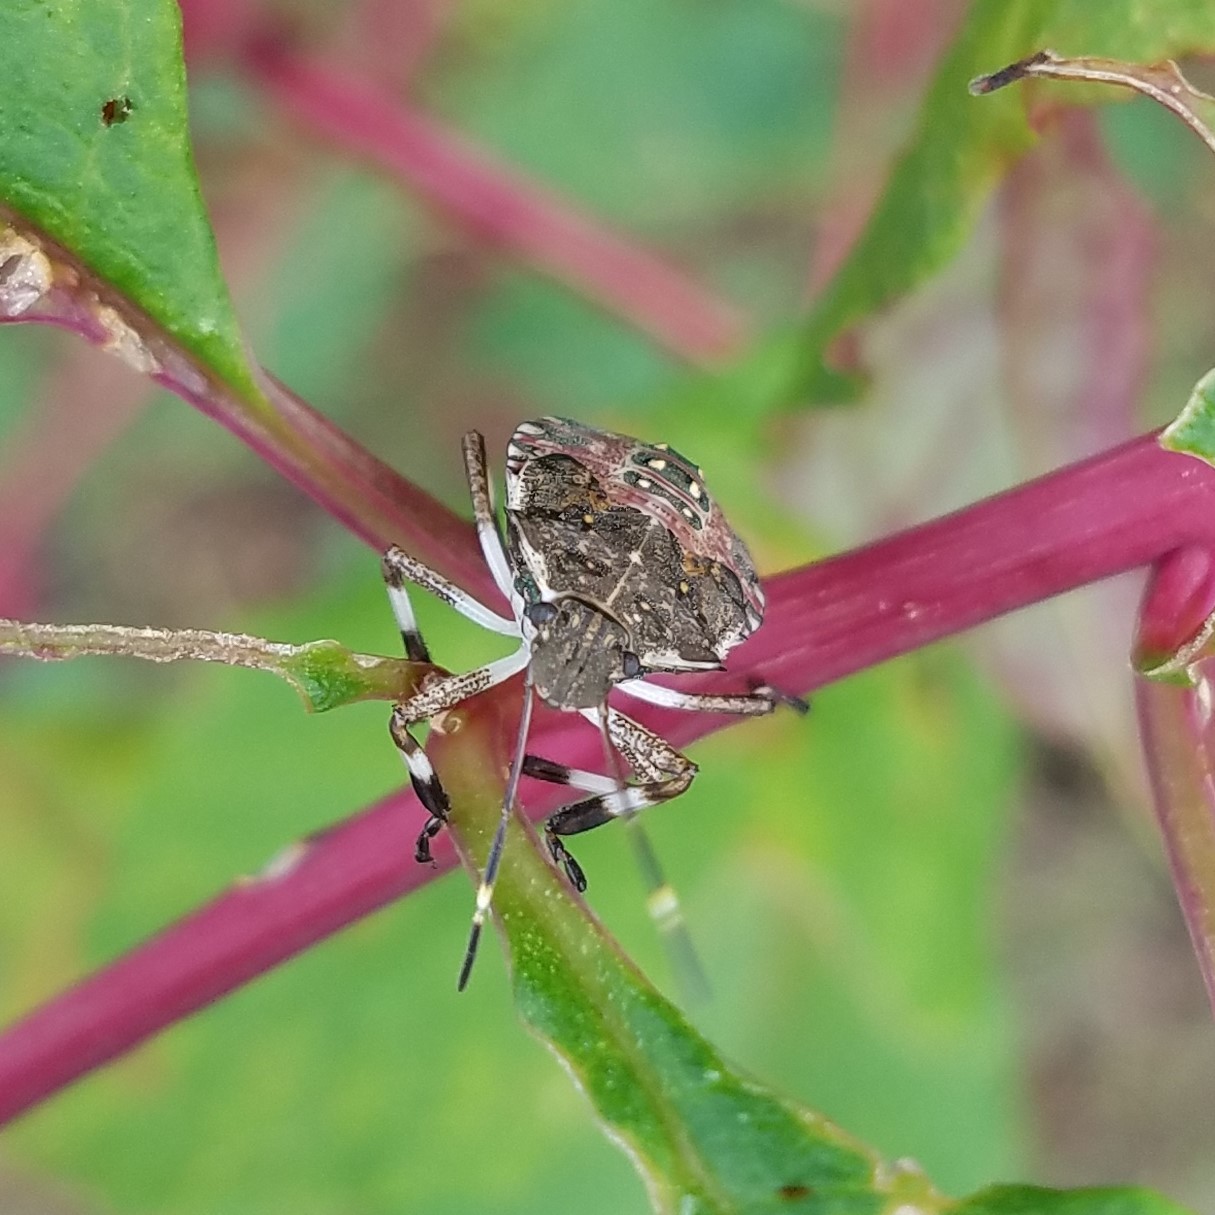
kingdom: Animalia
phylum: Arthropoda
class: Insecta
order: Hemiptera
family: Pentatomidae
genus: Halyomorpha
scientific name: Halyomorpha halys
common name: Brown marmorated stink bug
